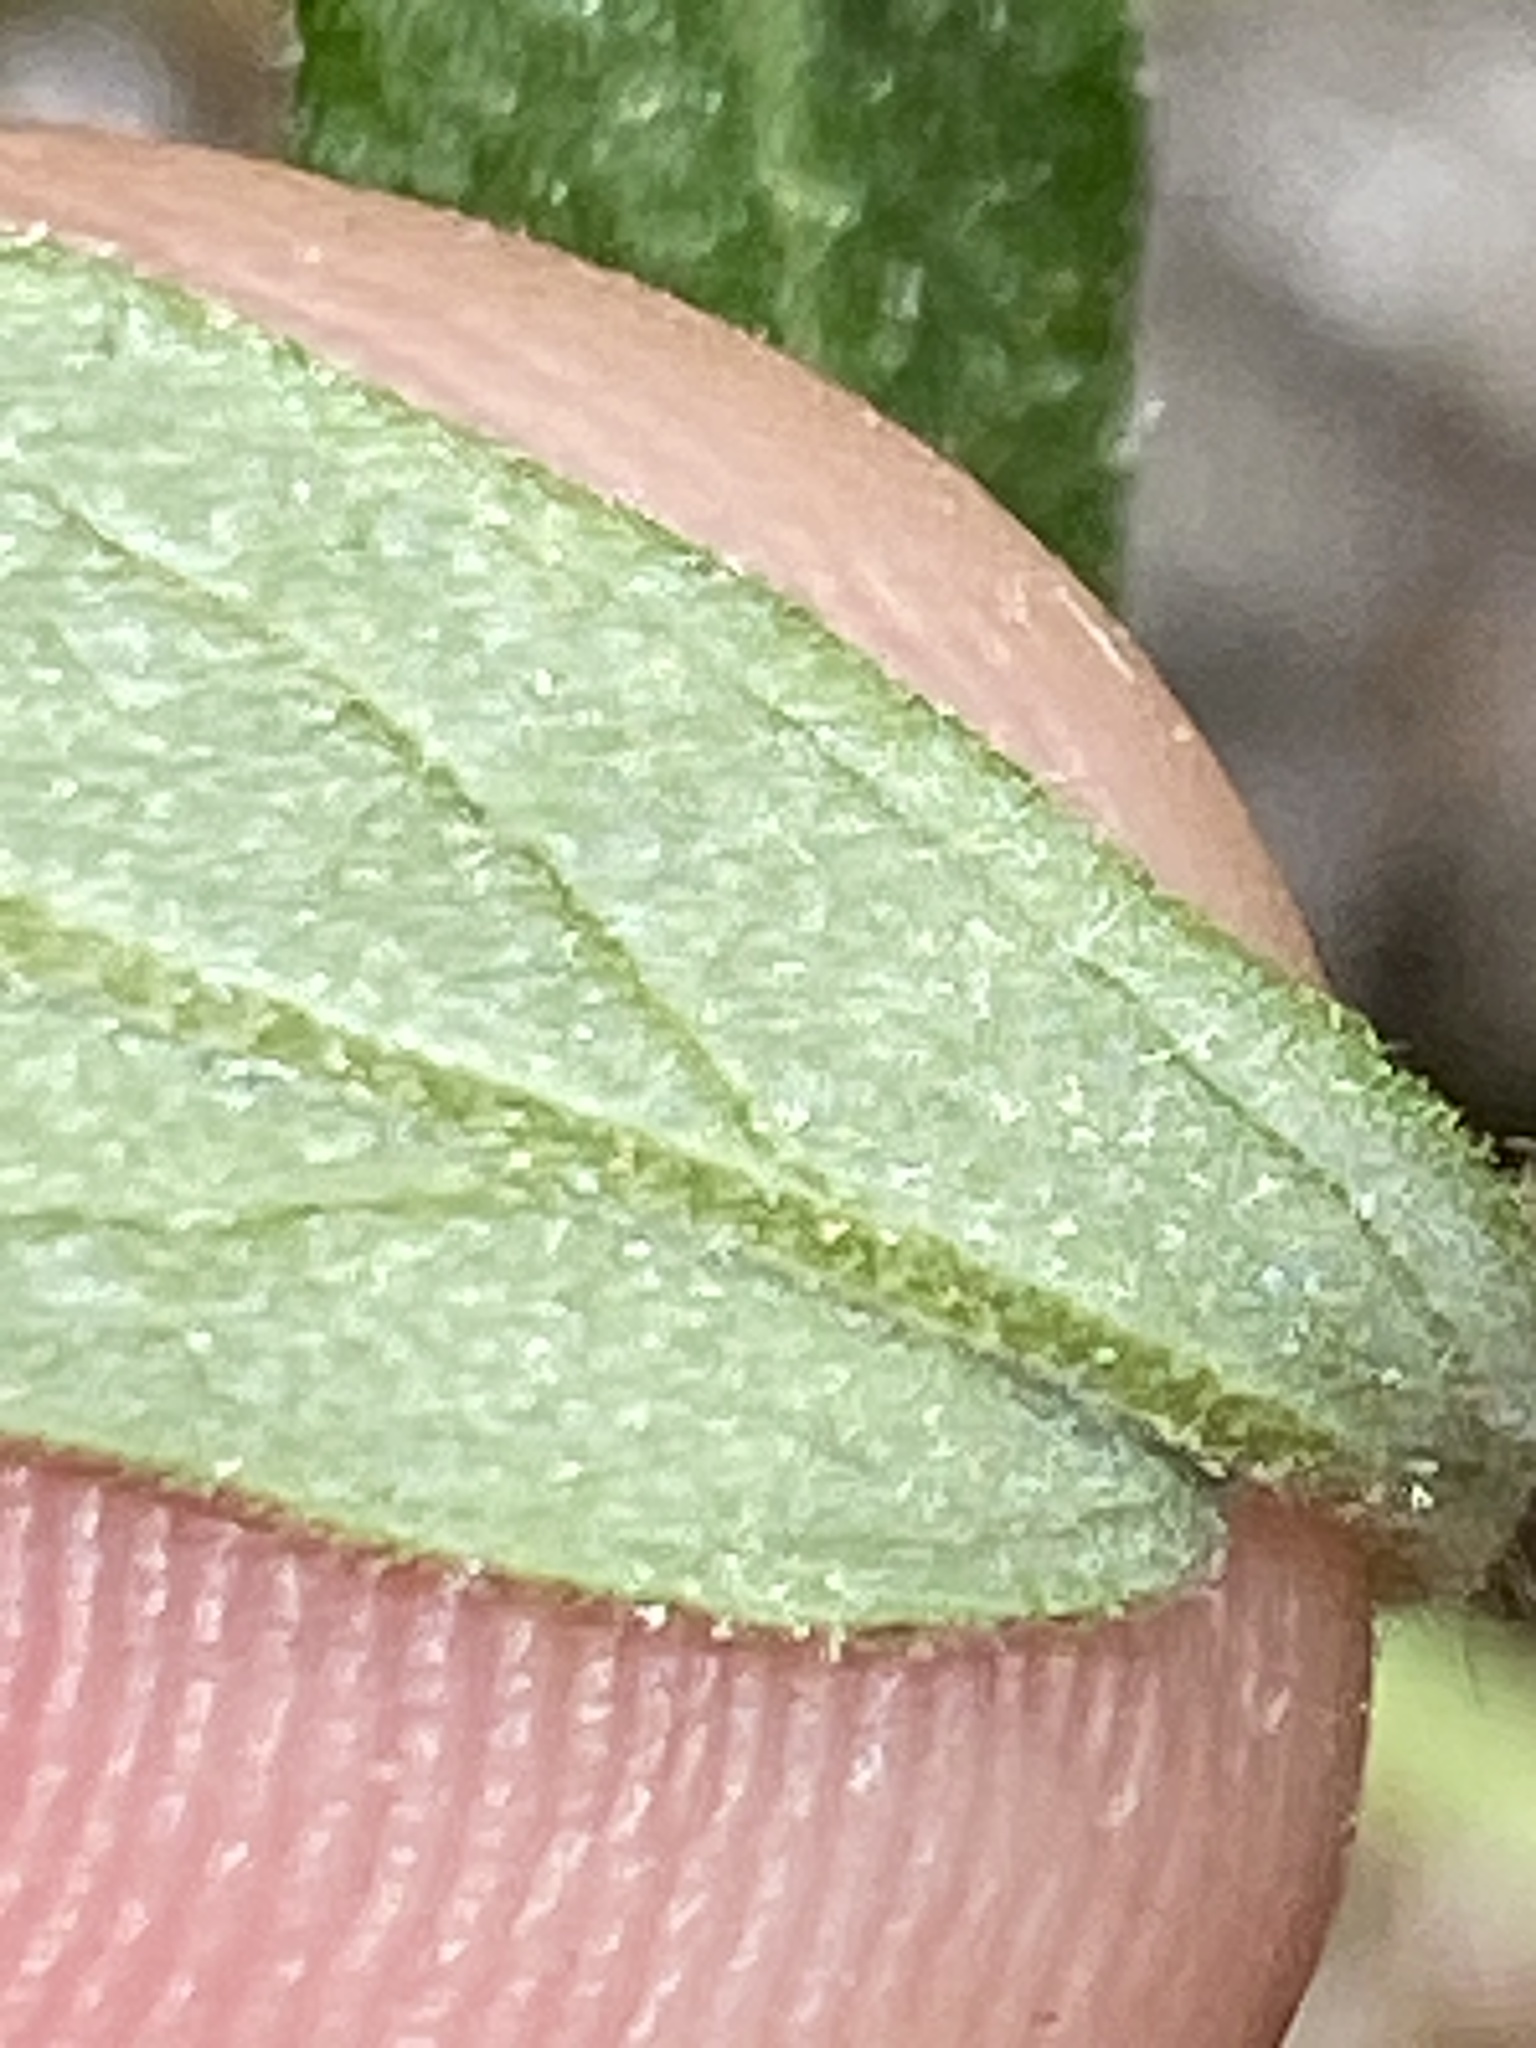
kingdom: Plantae
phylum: Tracheophyta
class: Magnoliopsida
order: Malvales
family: Cistaceae
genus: Crocanthemum
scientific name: Crocanthemum canadense
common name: Canada frostweed
